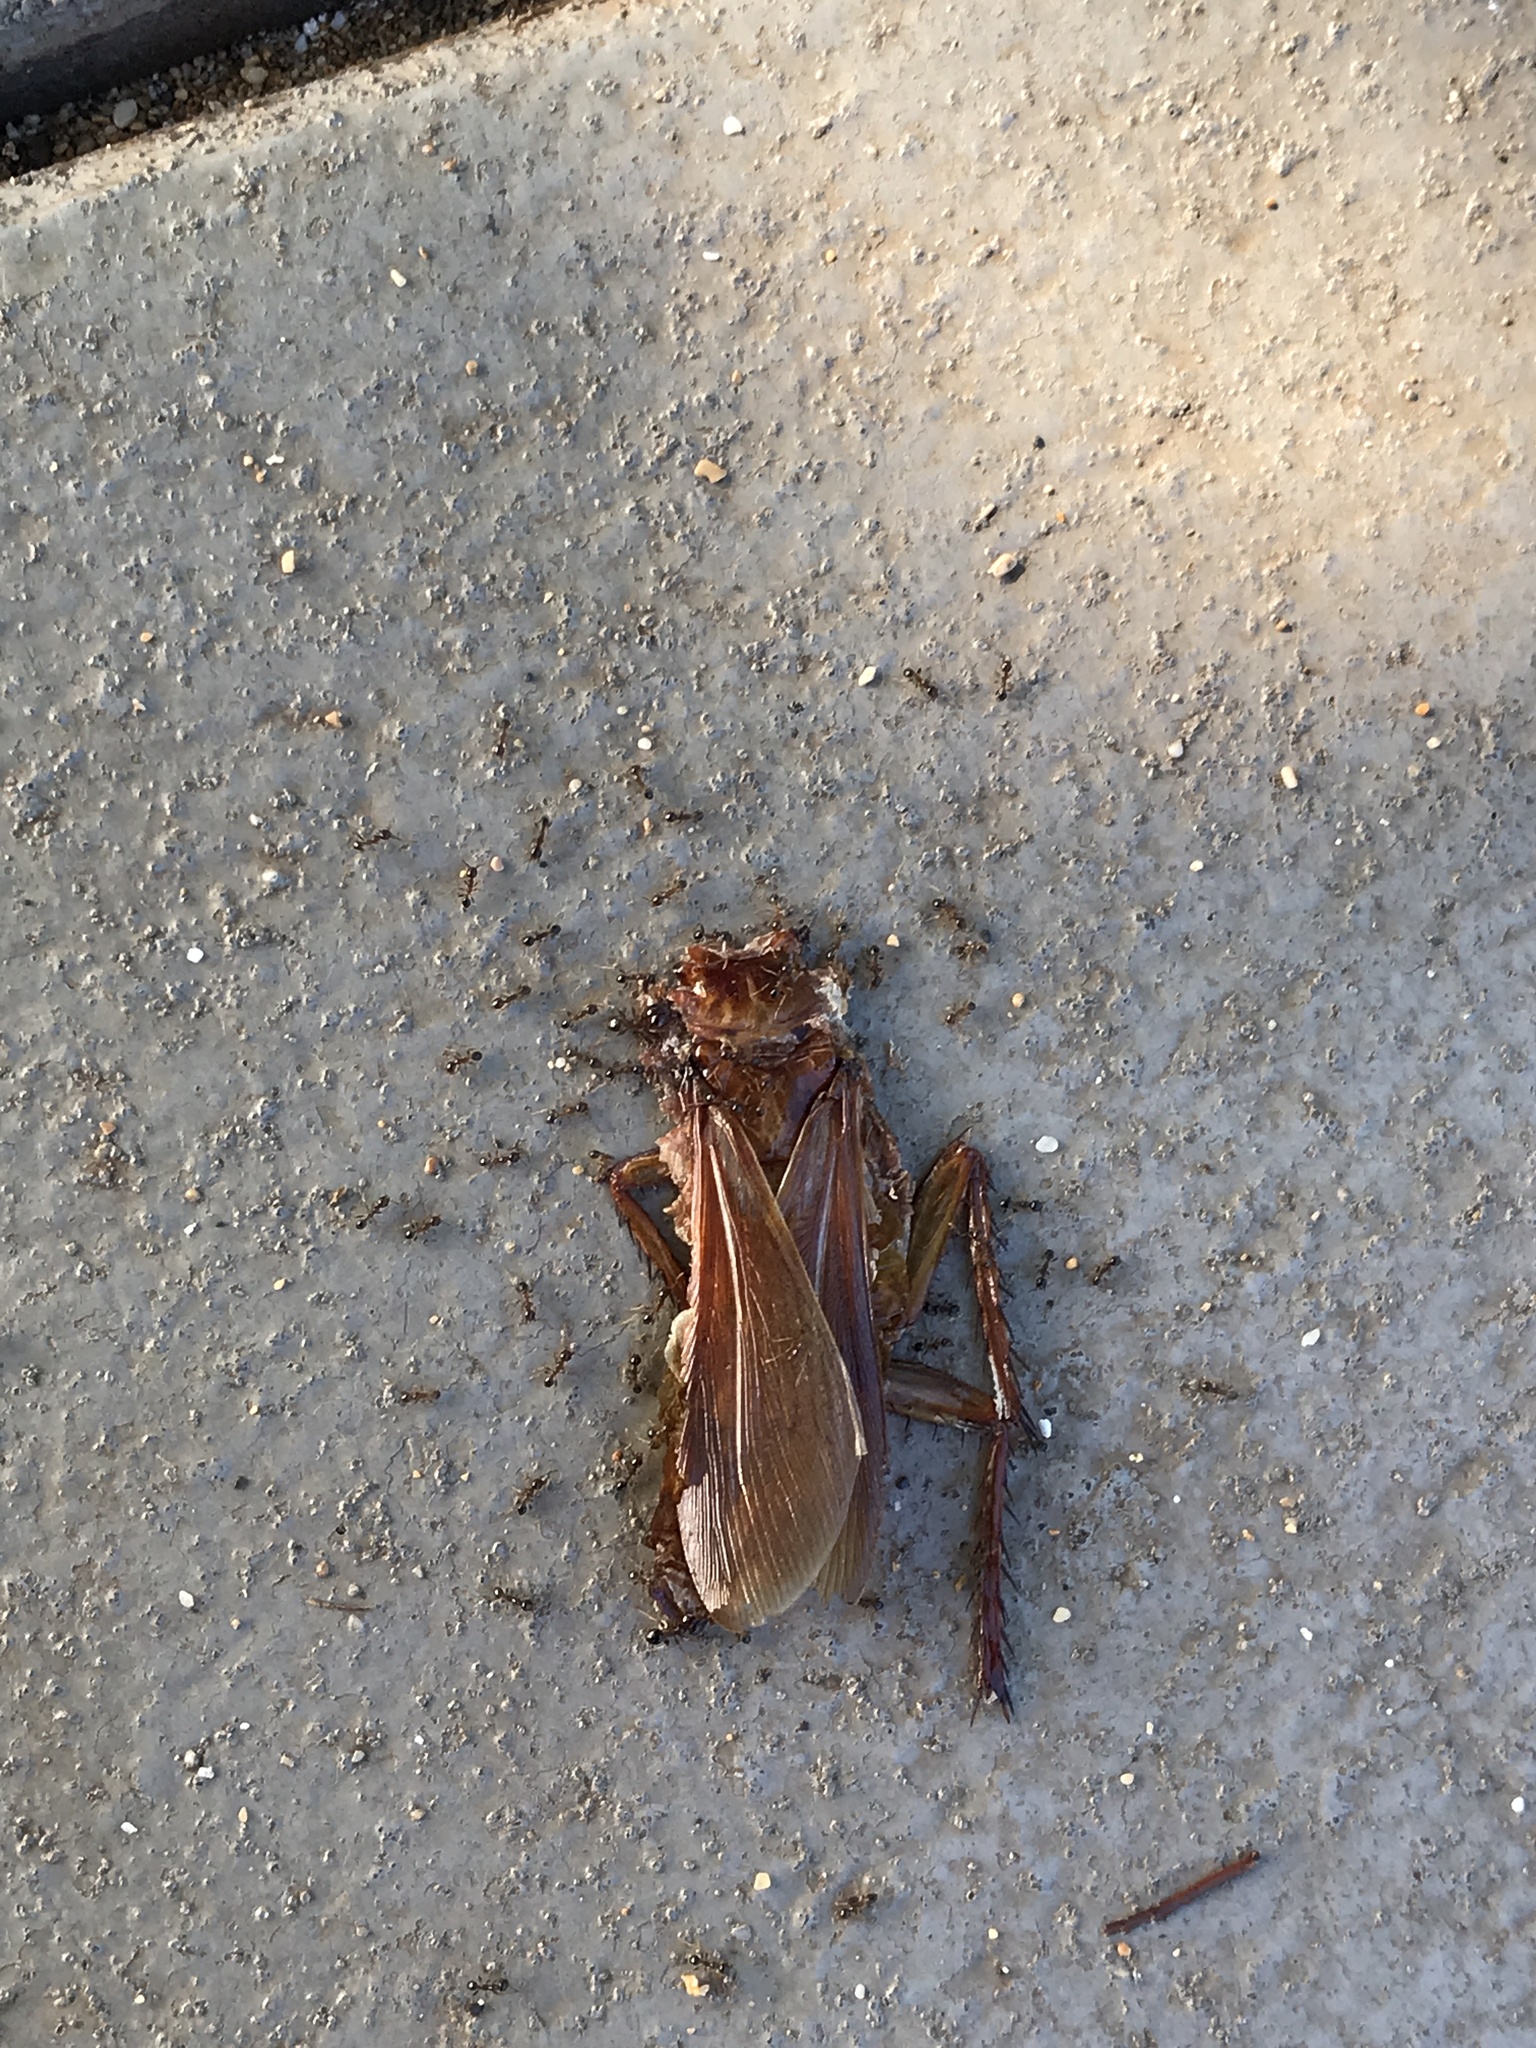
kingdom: Animalia
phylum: Arthropoda
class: Insecta
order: Blattodea
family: Blattidae
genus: Periplaneta
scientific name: Periplaneta americana
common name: American cockroach
